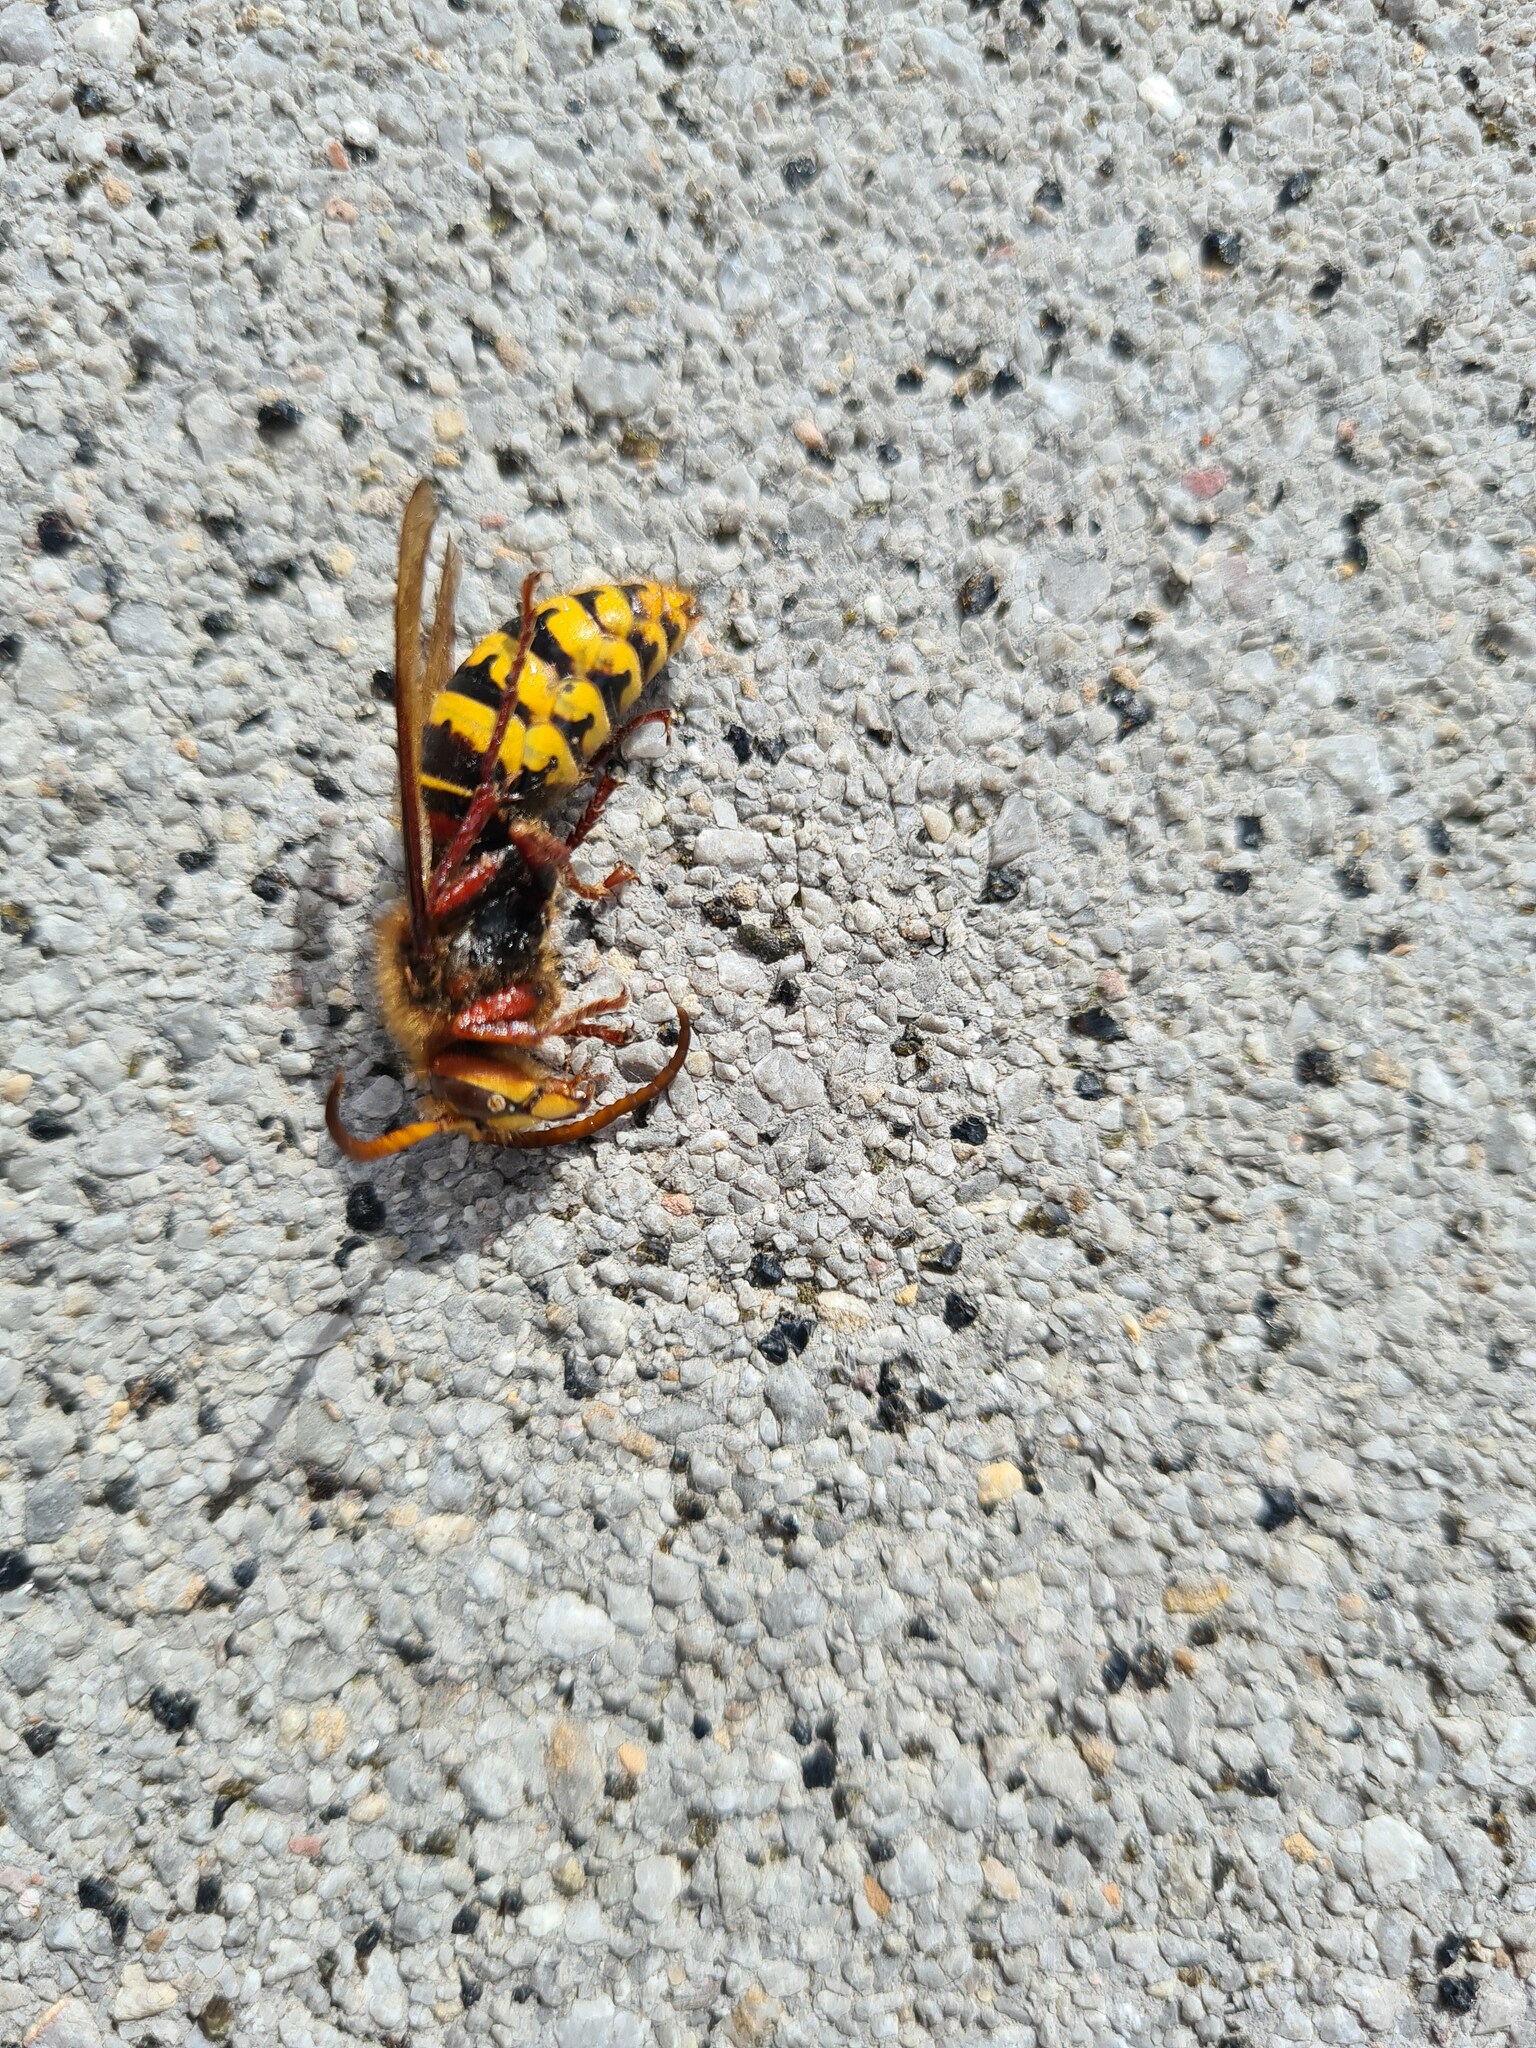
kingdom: Animalia
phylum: Arthropoda
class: Insecta
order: Hymenoptera
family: Vespidae
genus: Vespa
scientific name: Vespa crabro
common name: Hornet
